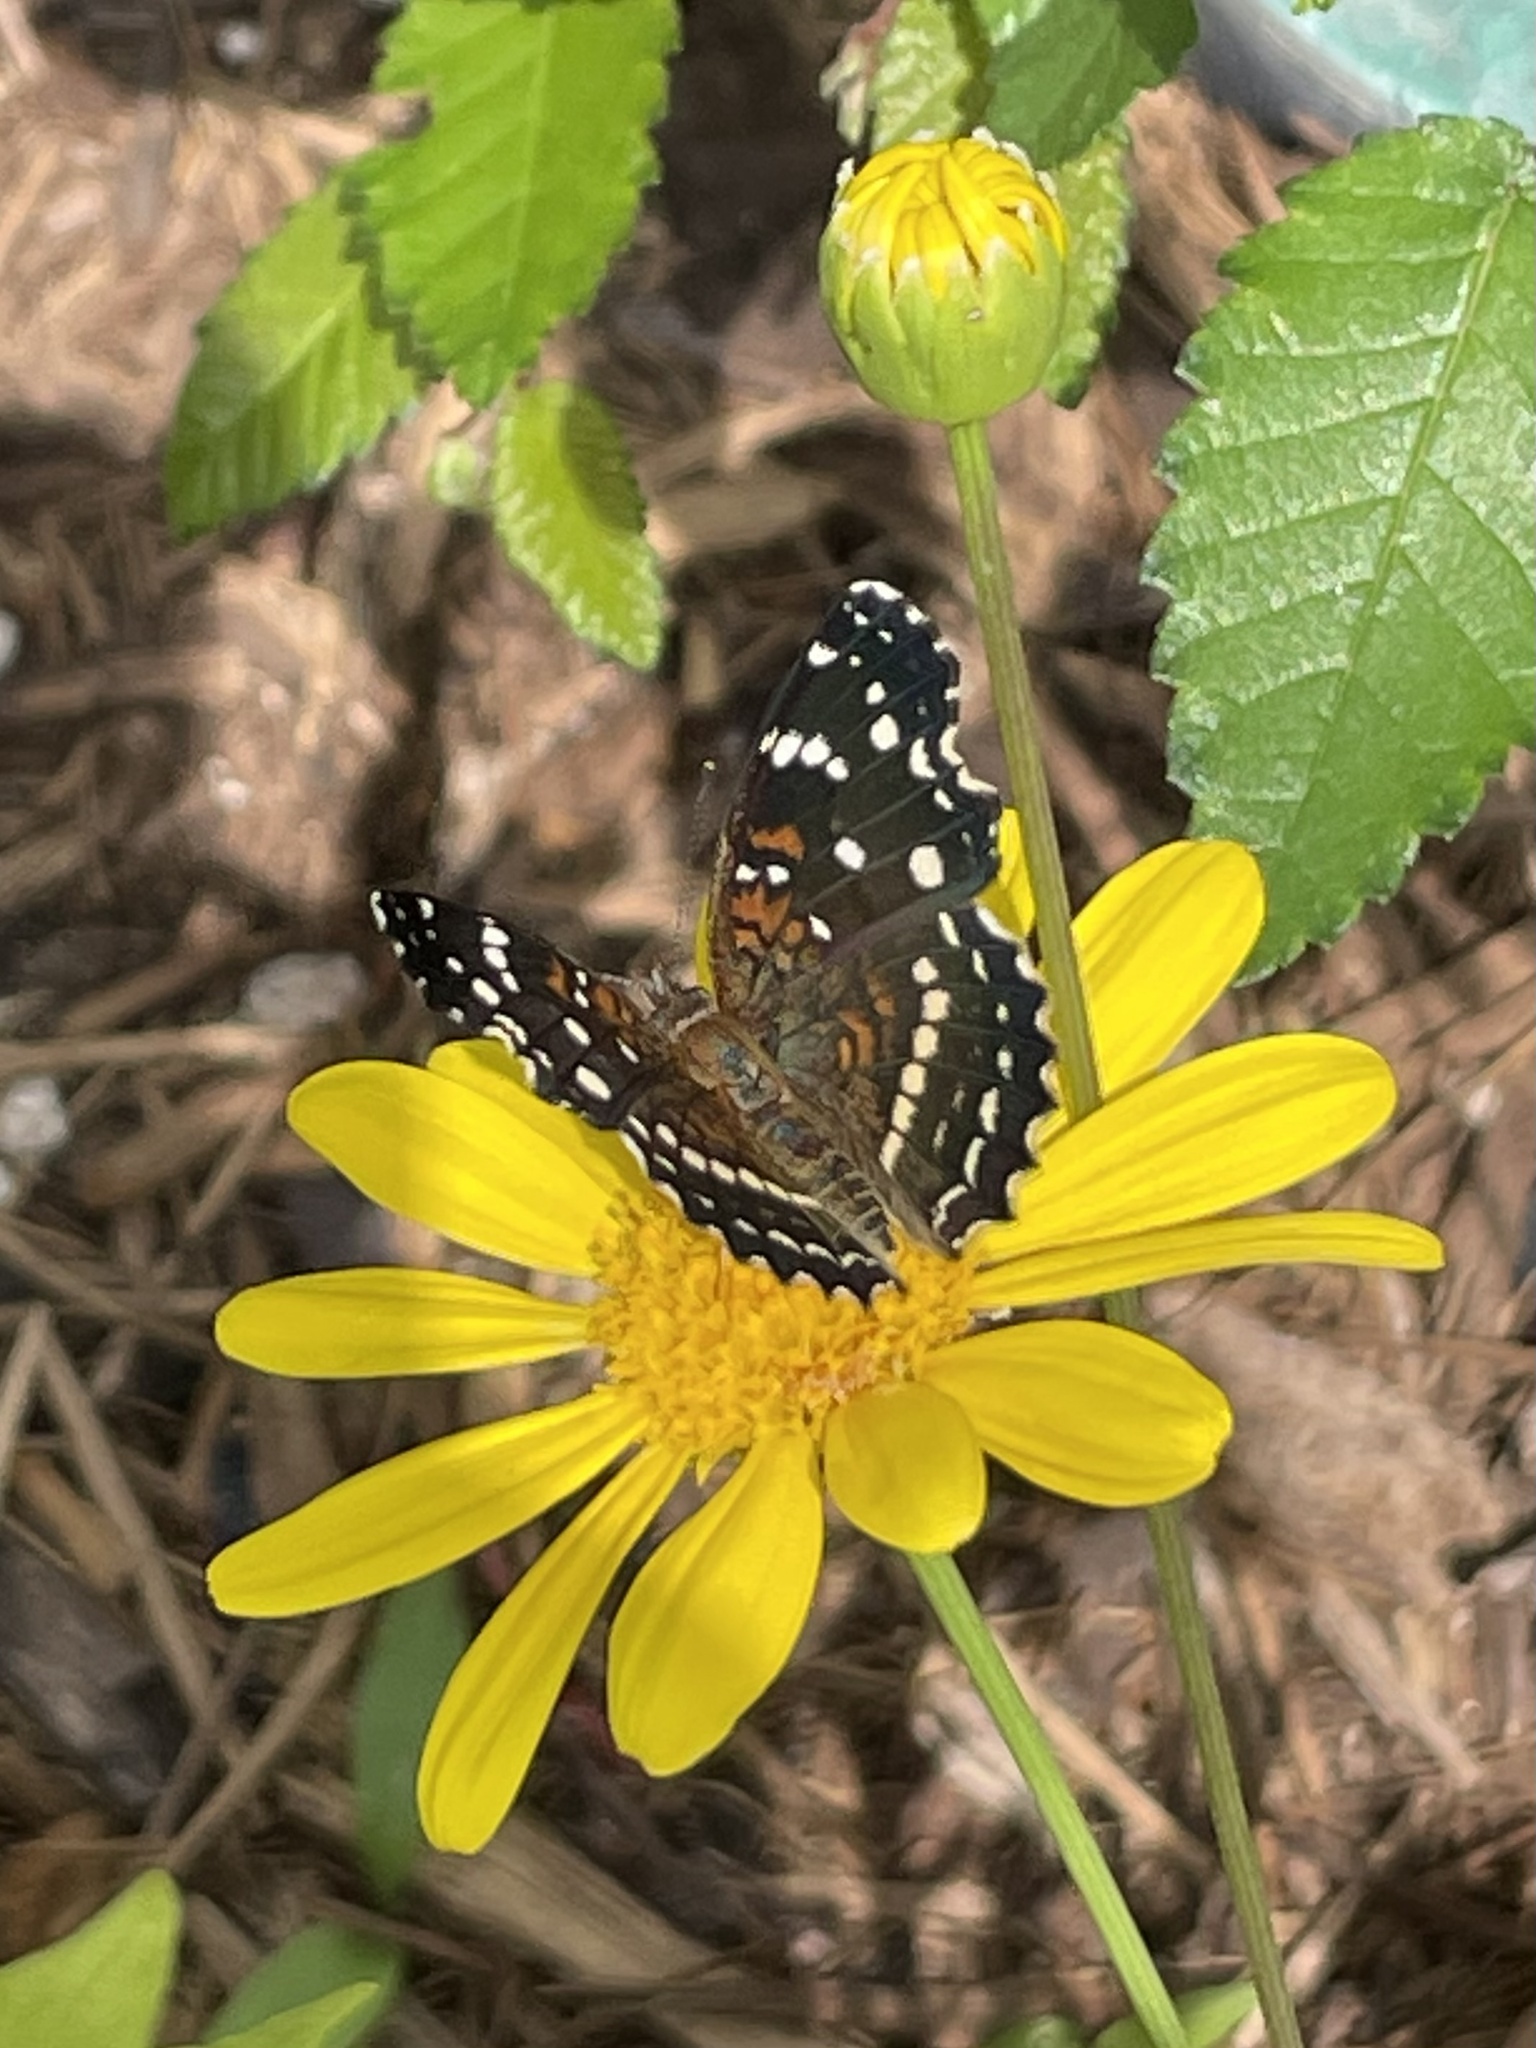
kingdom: Animalia
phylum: Arthropoda
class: Insecta
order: Lepidoptera
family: Nymphalidae
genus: Anthanassa
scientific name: Anthanassa texana
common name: Texan crescent
